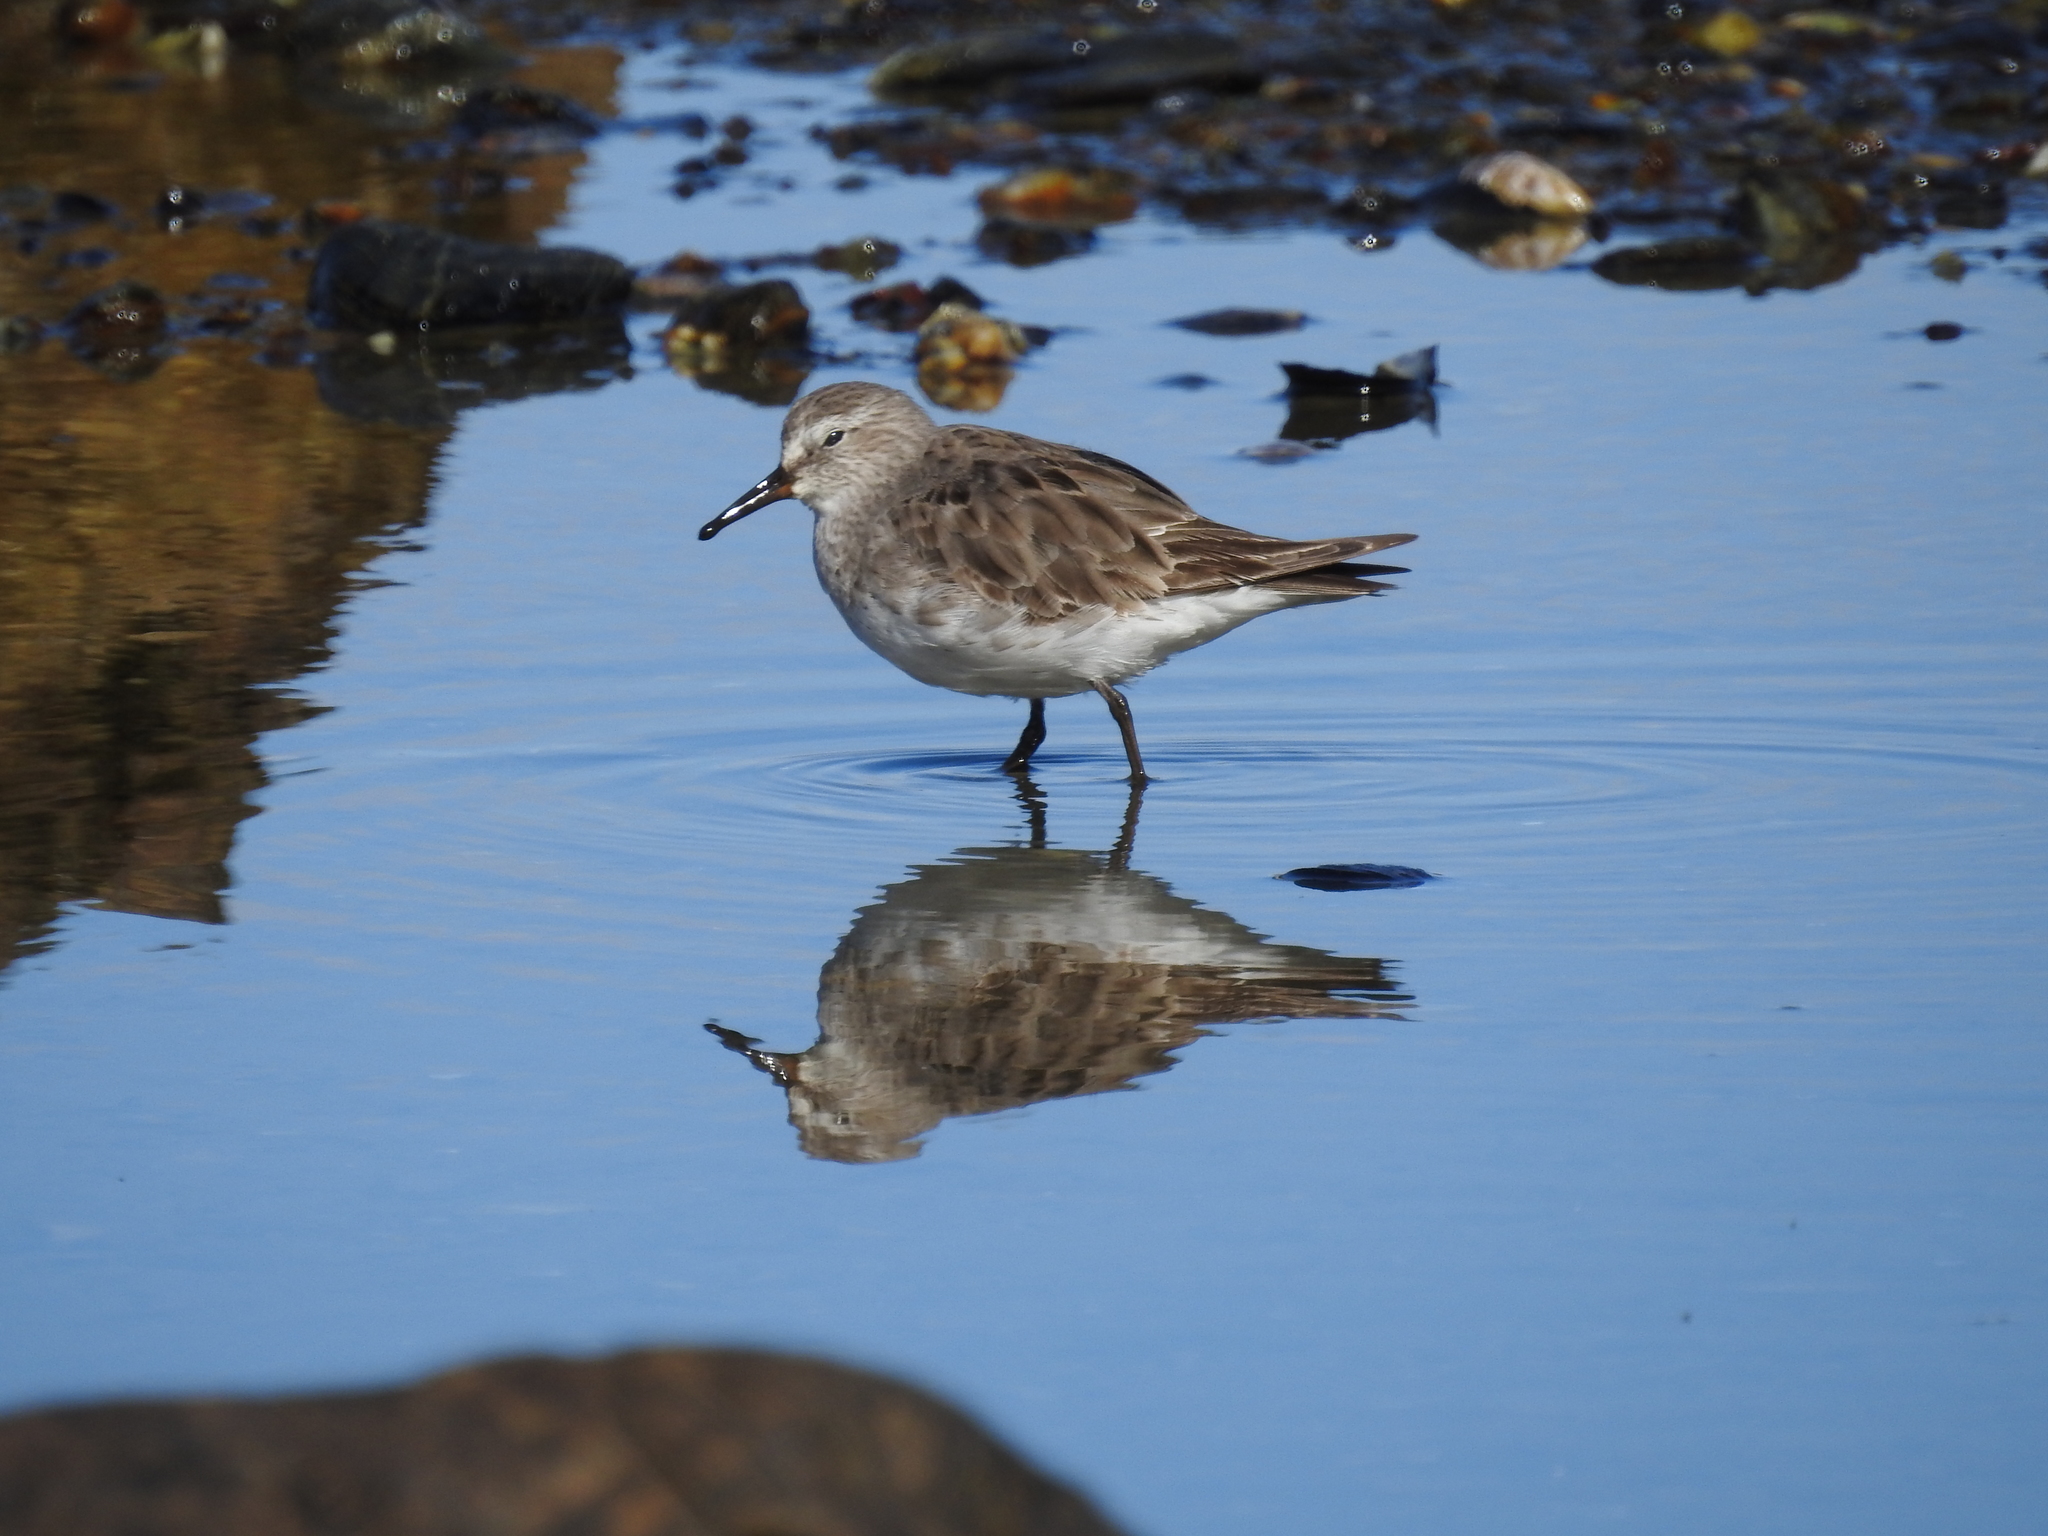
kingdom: Animalia
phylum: Chordata
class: Aves
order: Charadriiformes
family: Scolopacidae
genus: Calidris
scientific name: Calidris fuscicollis
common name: White-rumped sandpiper
